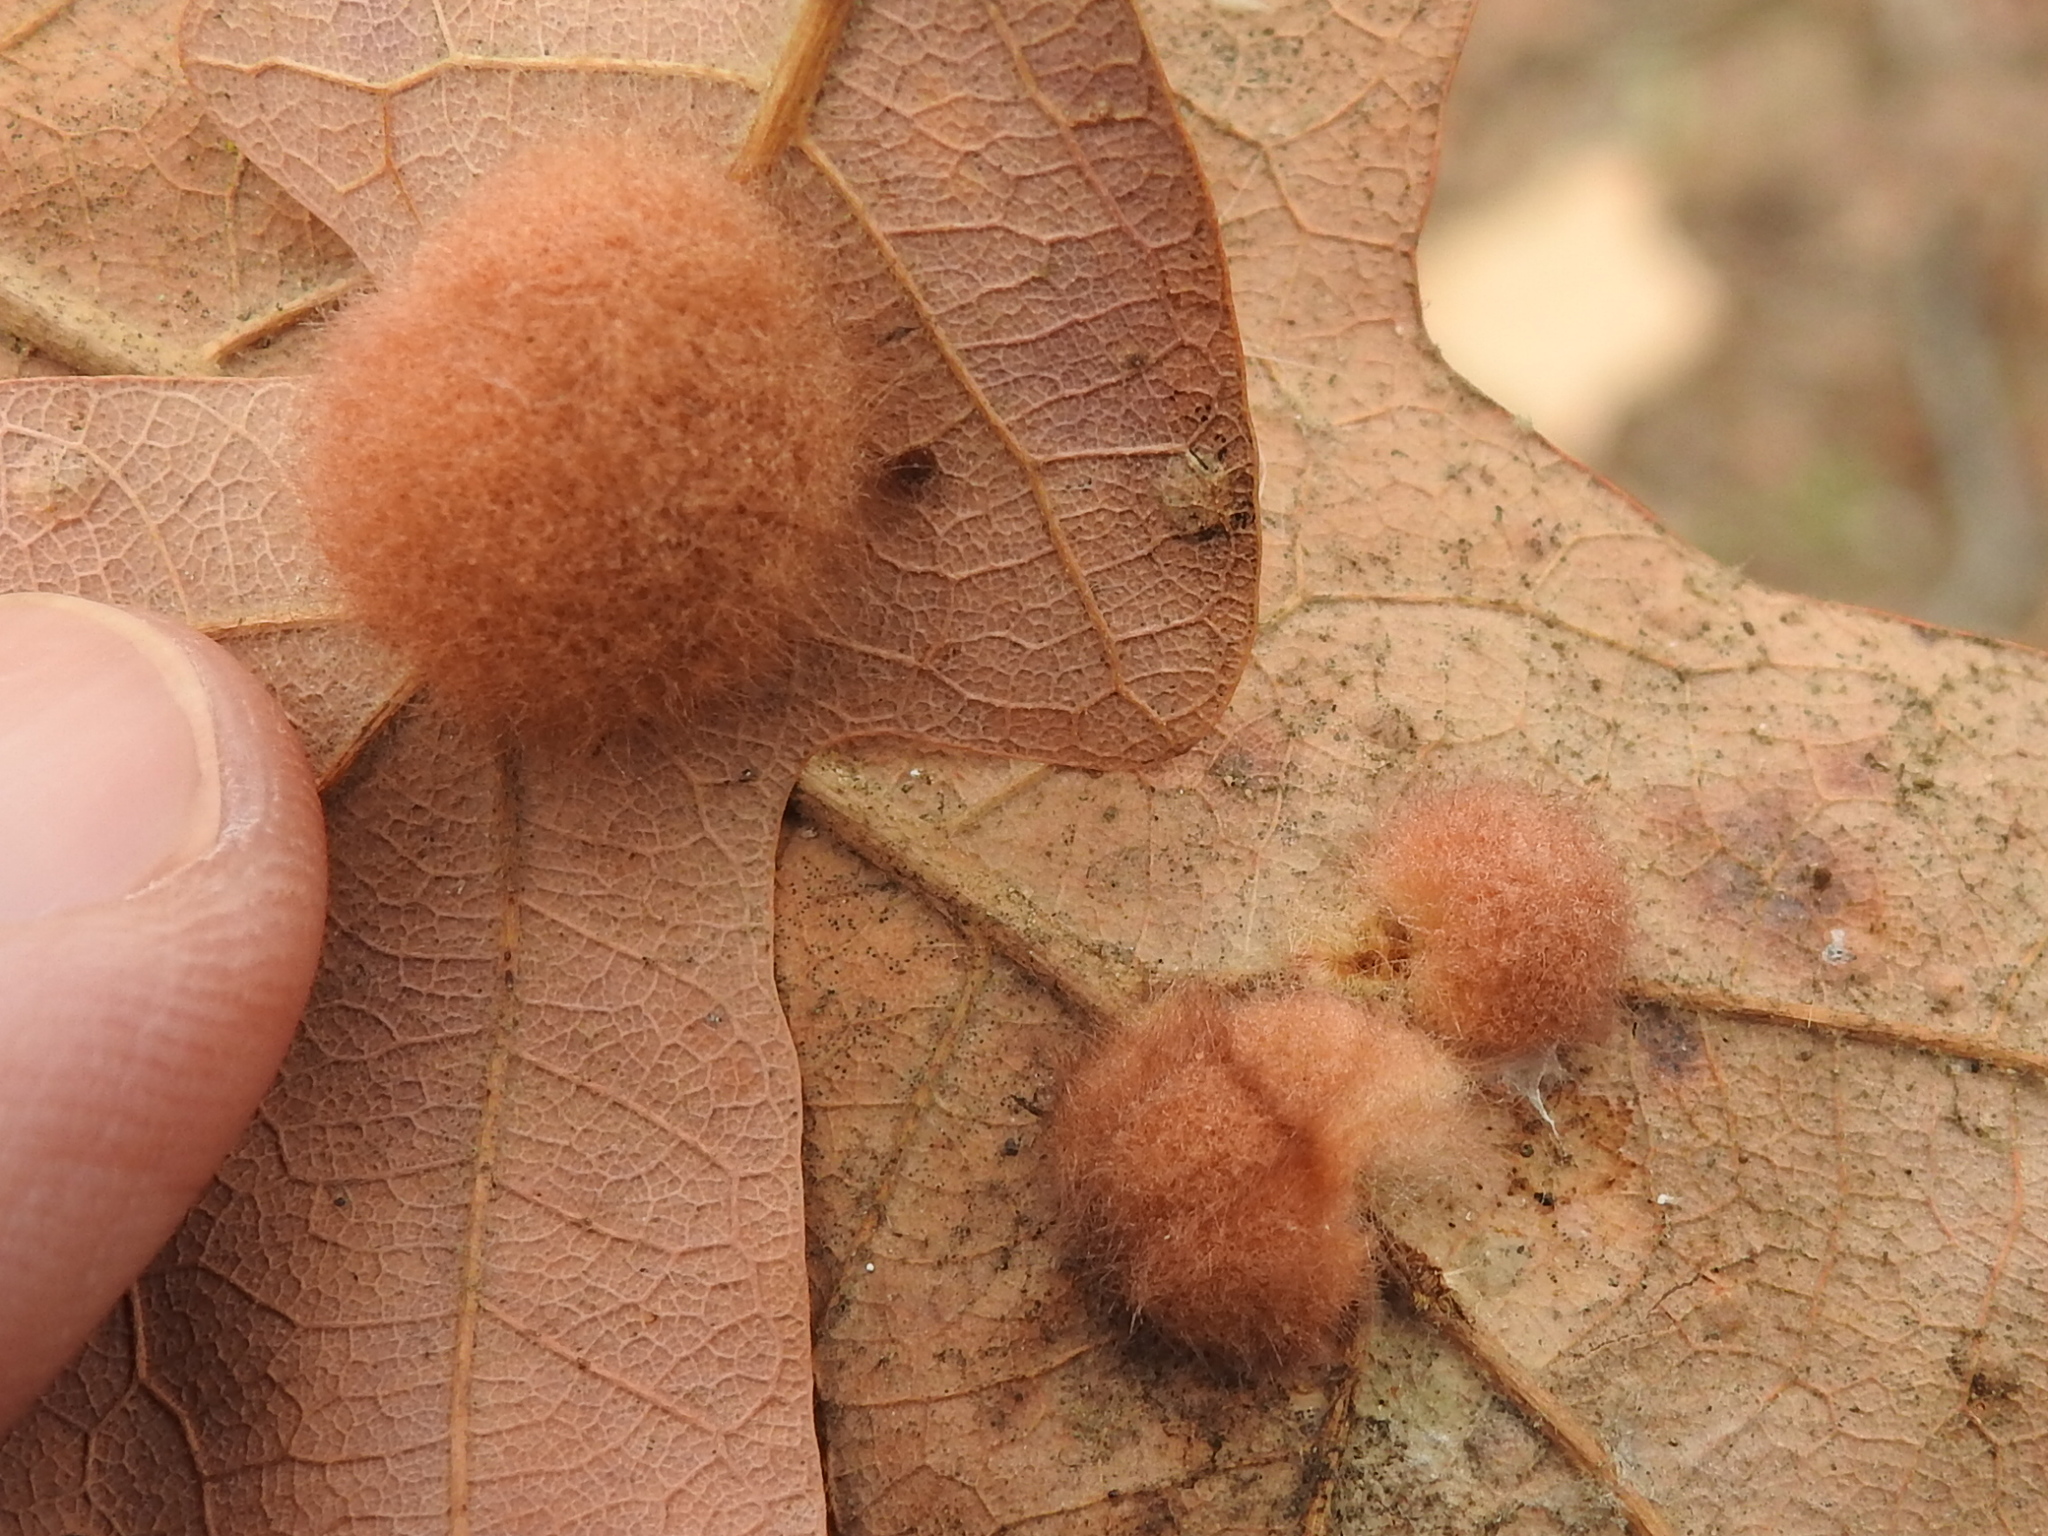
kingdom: Animalia
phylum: Arthropoda
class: Insecta
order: Hymenoptera
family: Cynipidae
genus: Andricus
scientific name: Andricus Druon pattoni
